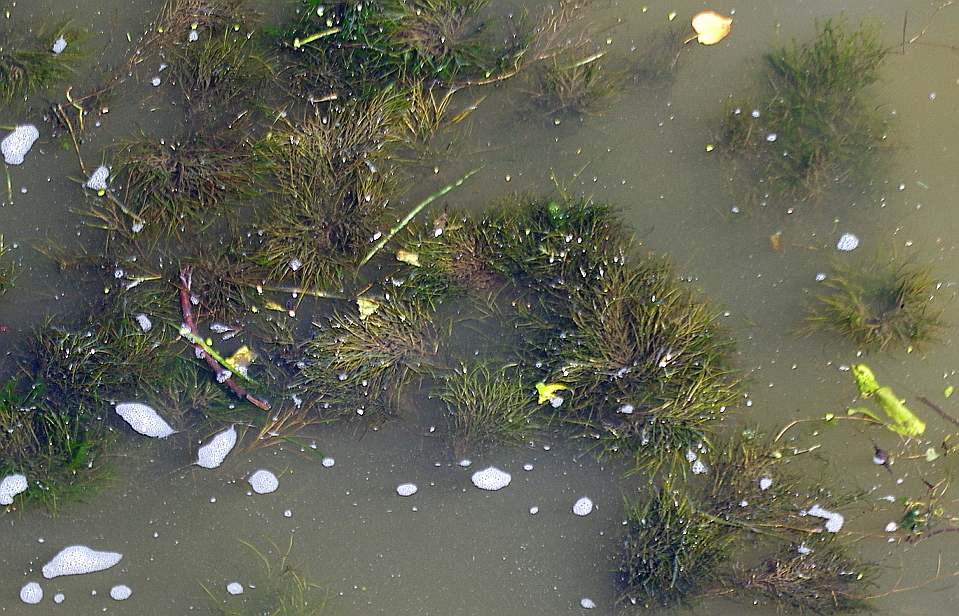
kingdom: Plantae
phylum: Tracheophyta
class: Liliopsida
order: Alismatales
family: Potamogetonaceae
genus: Stuckenia
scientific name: Stuckenia pectinata
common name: Sago pondweed
